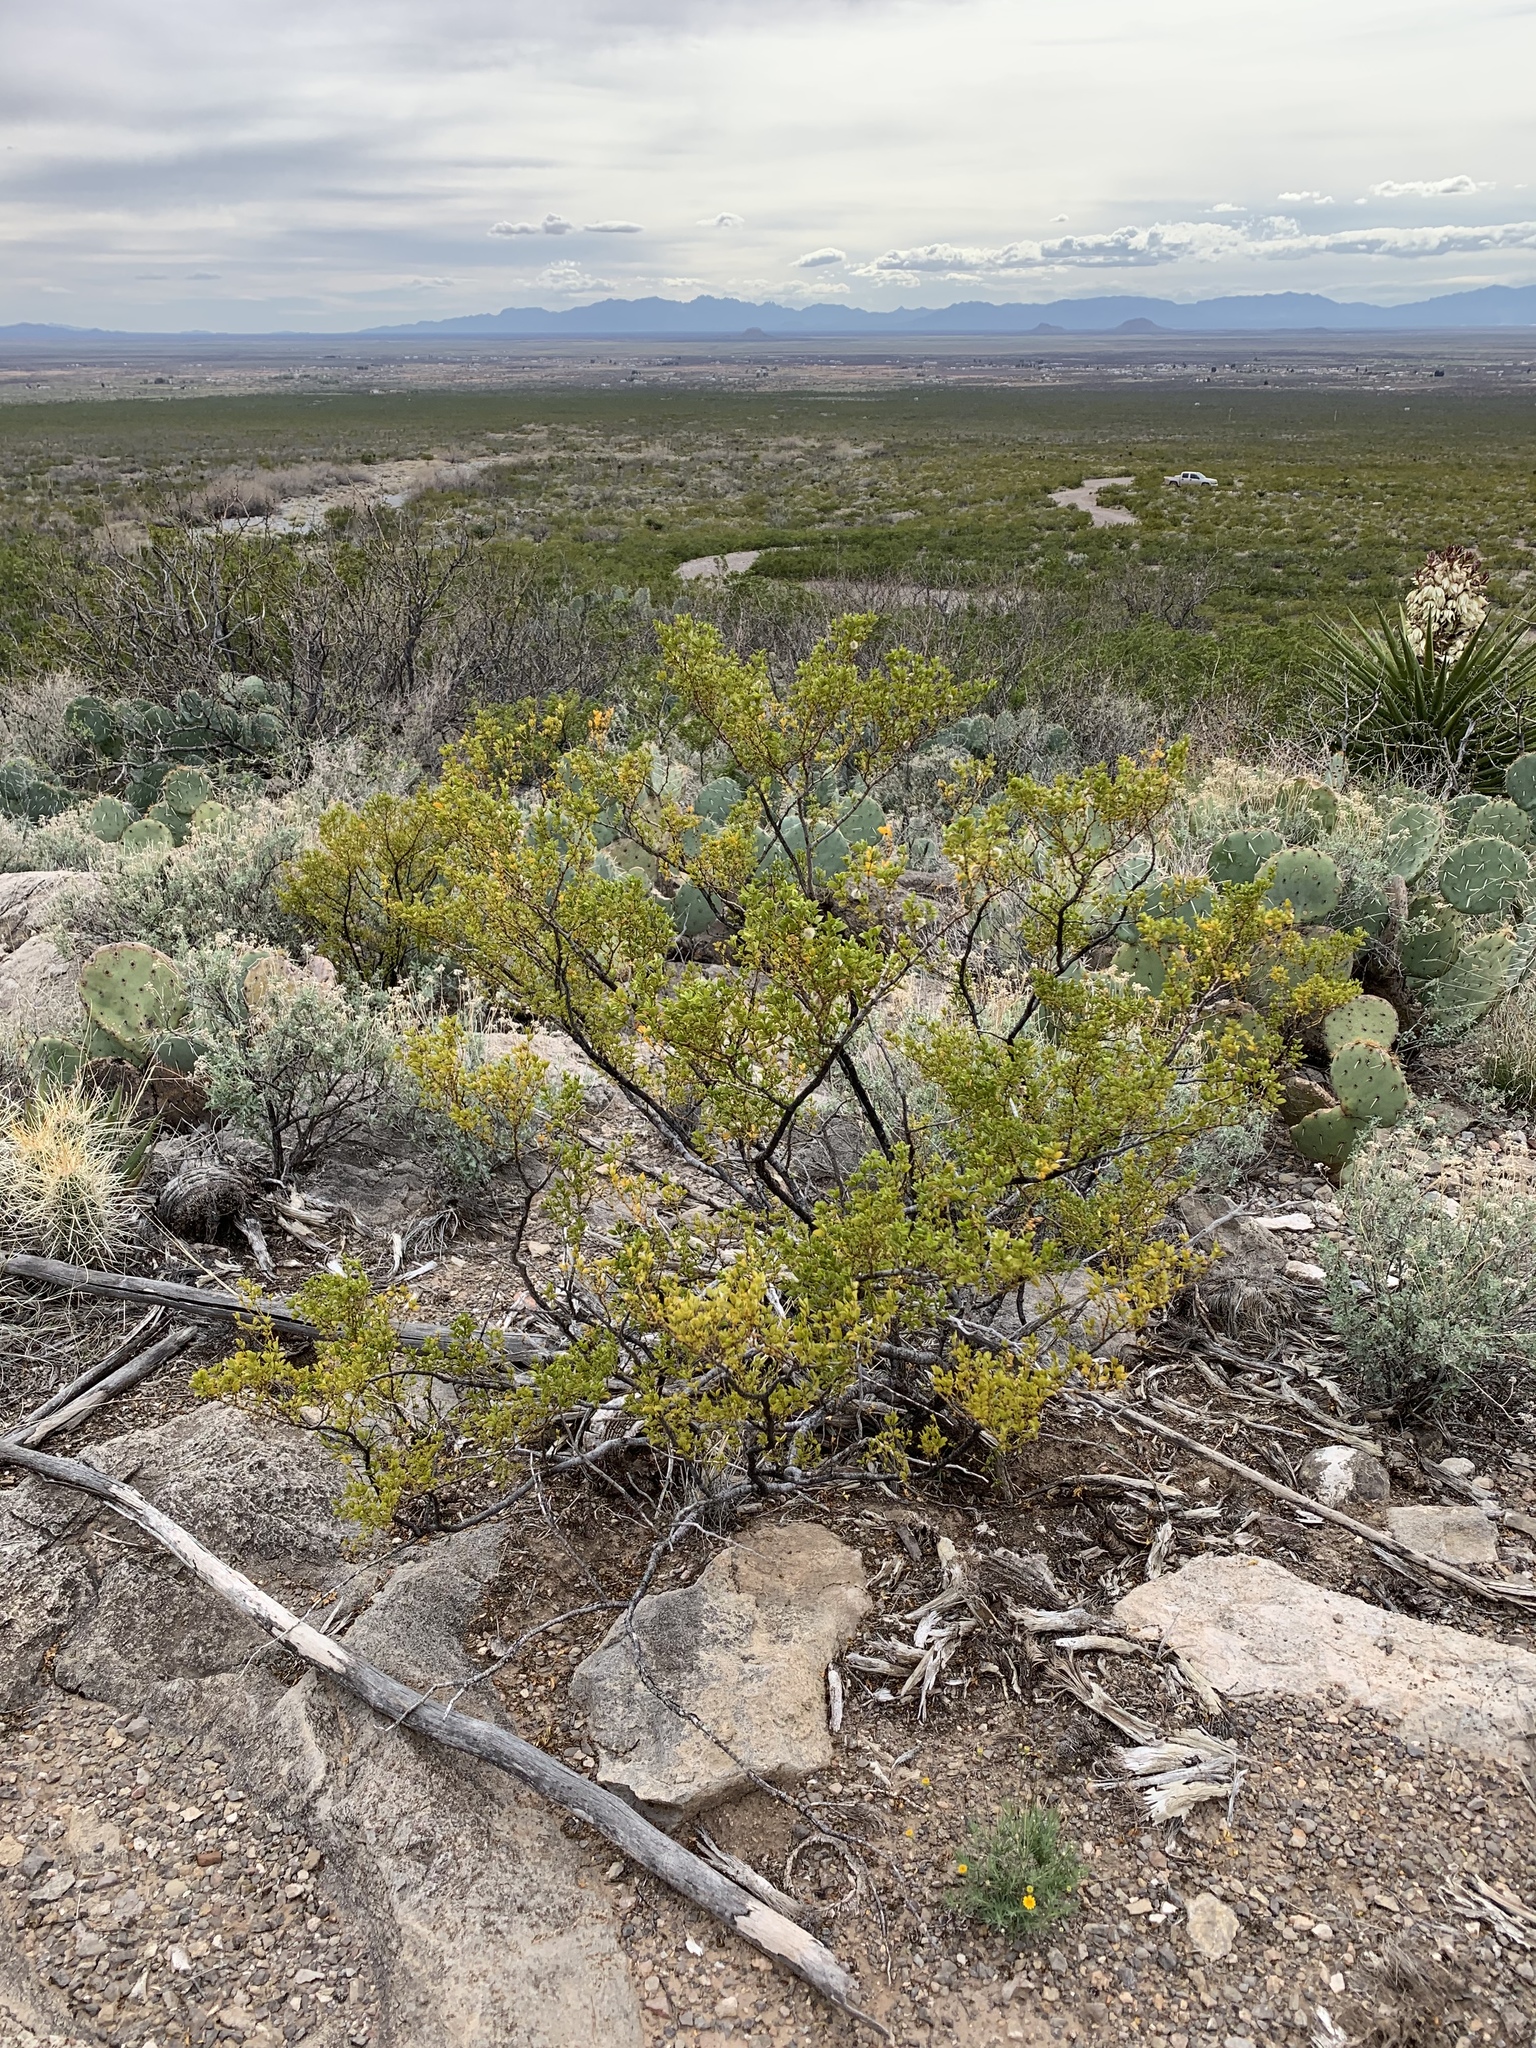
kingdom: Plantae
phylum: Tracheophyta
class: Magnoliopsida
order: Zygophyllales
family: Zygophyllaceae
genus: Larrea
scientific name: Larrea tridentata
